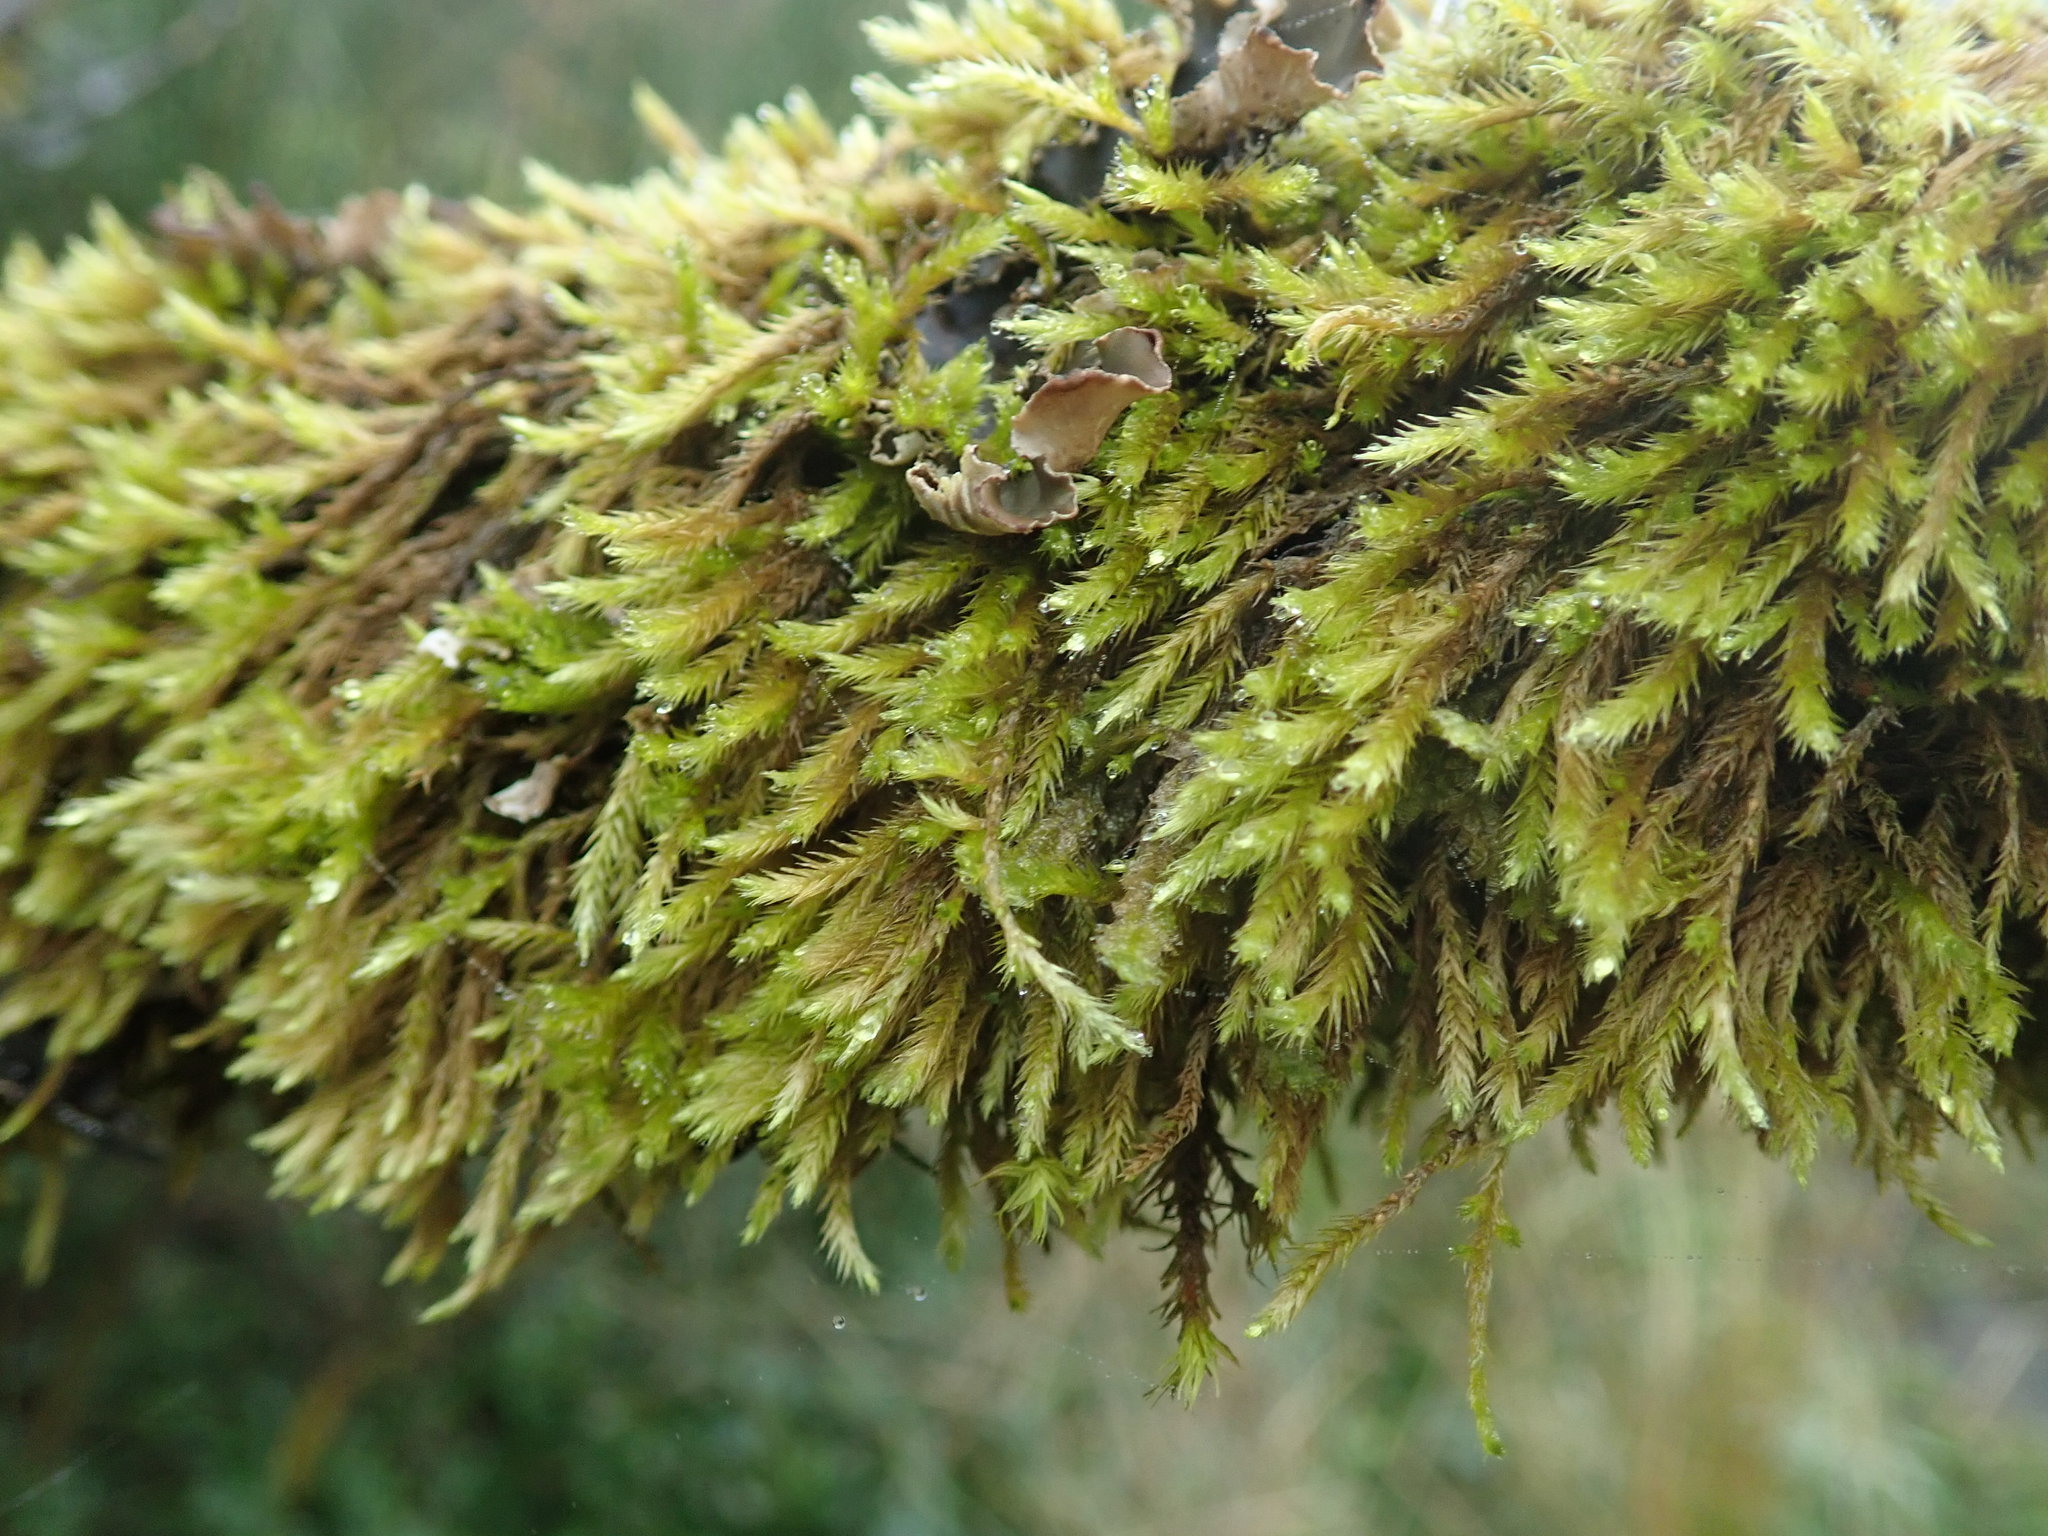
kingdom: Plantae
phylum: Bryophyta
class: Bryopsida
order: Hypnales
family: Brachytheciaceae
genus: Homalothecium
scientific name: Homalothecium fulgescens
